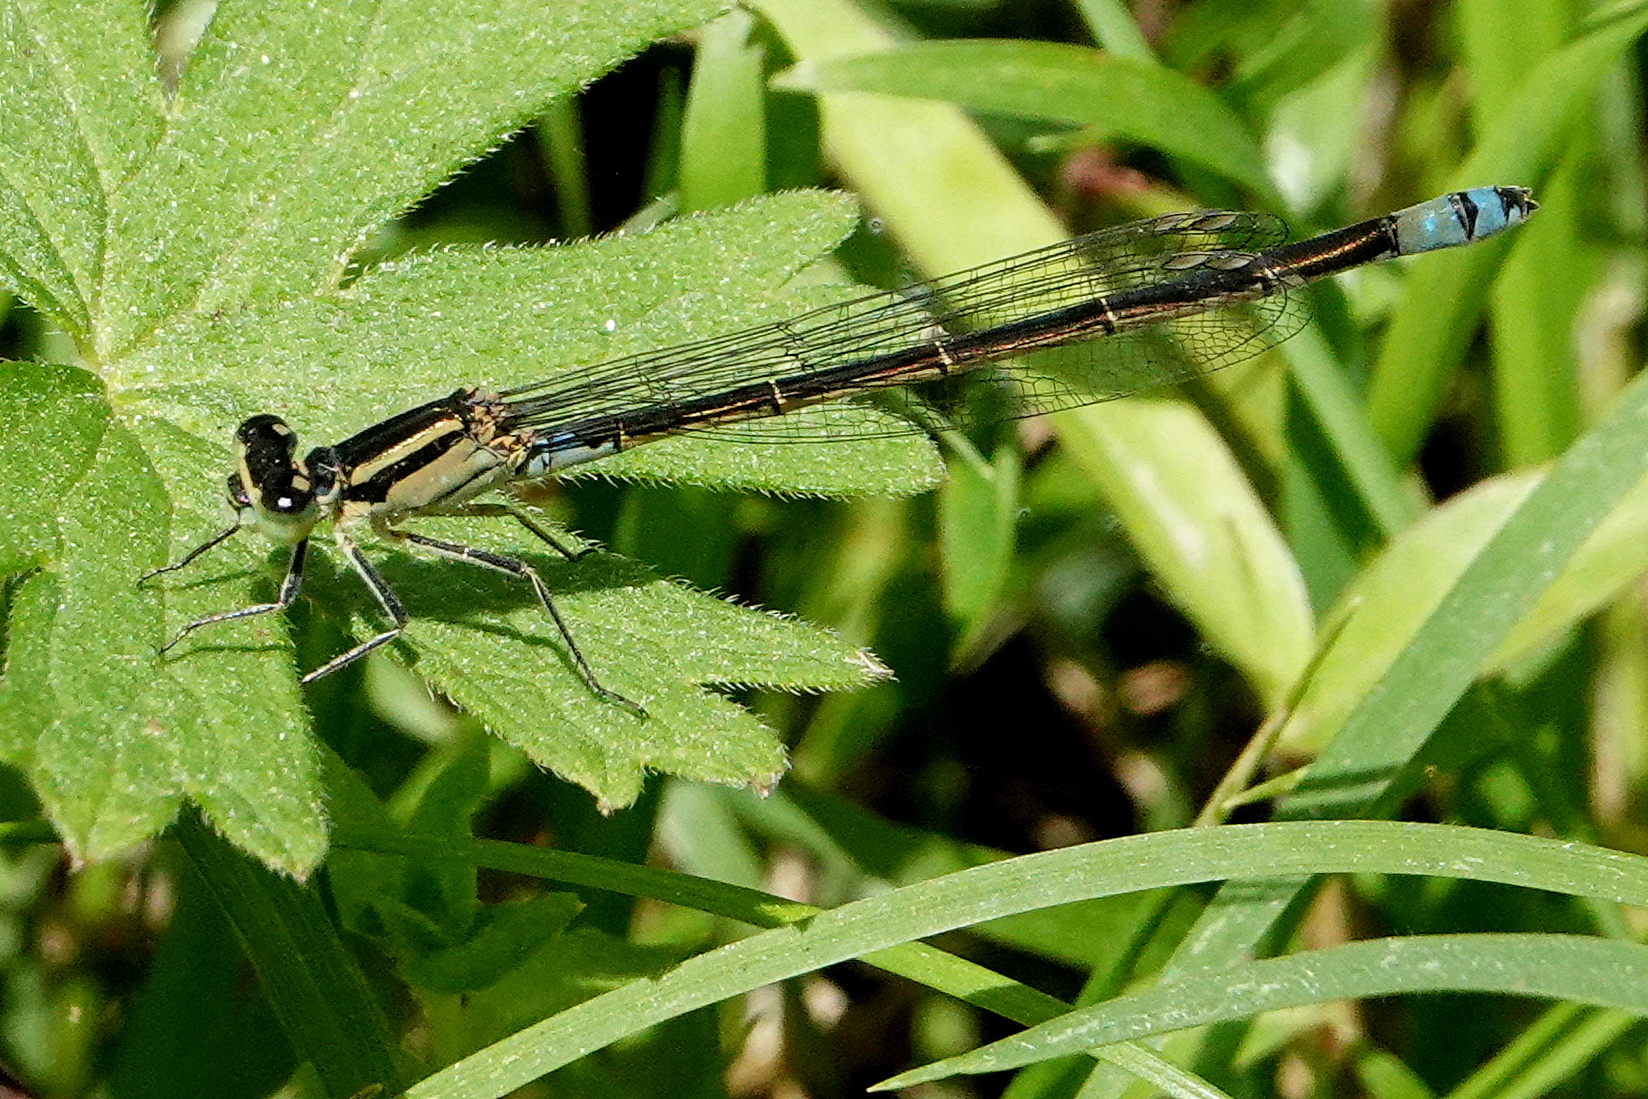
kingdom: Animalia
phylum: Arthropoda
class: Insecta
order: Odonata
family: Coenagrionidae
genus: Ischnura
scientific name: Ischnura heterosticta
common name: Common bluetail
